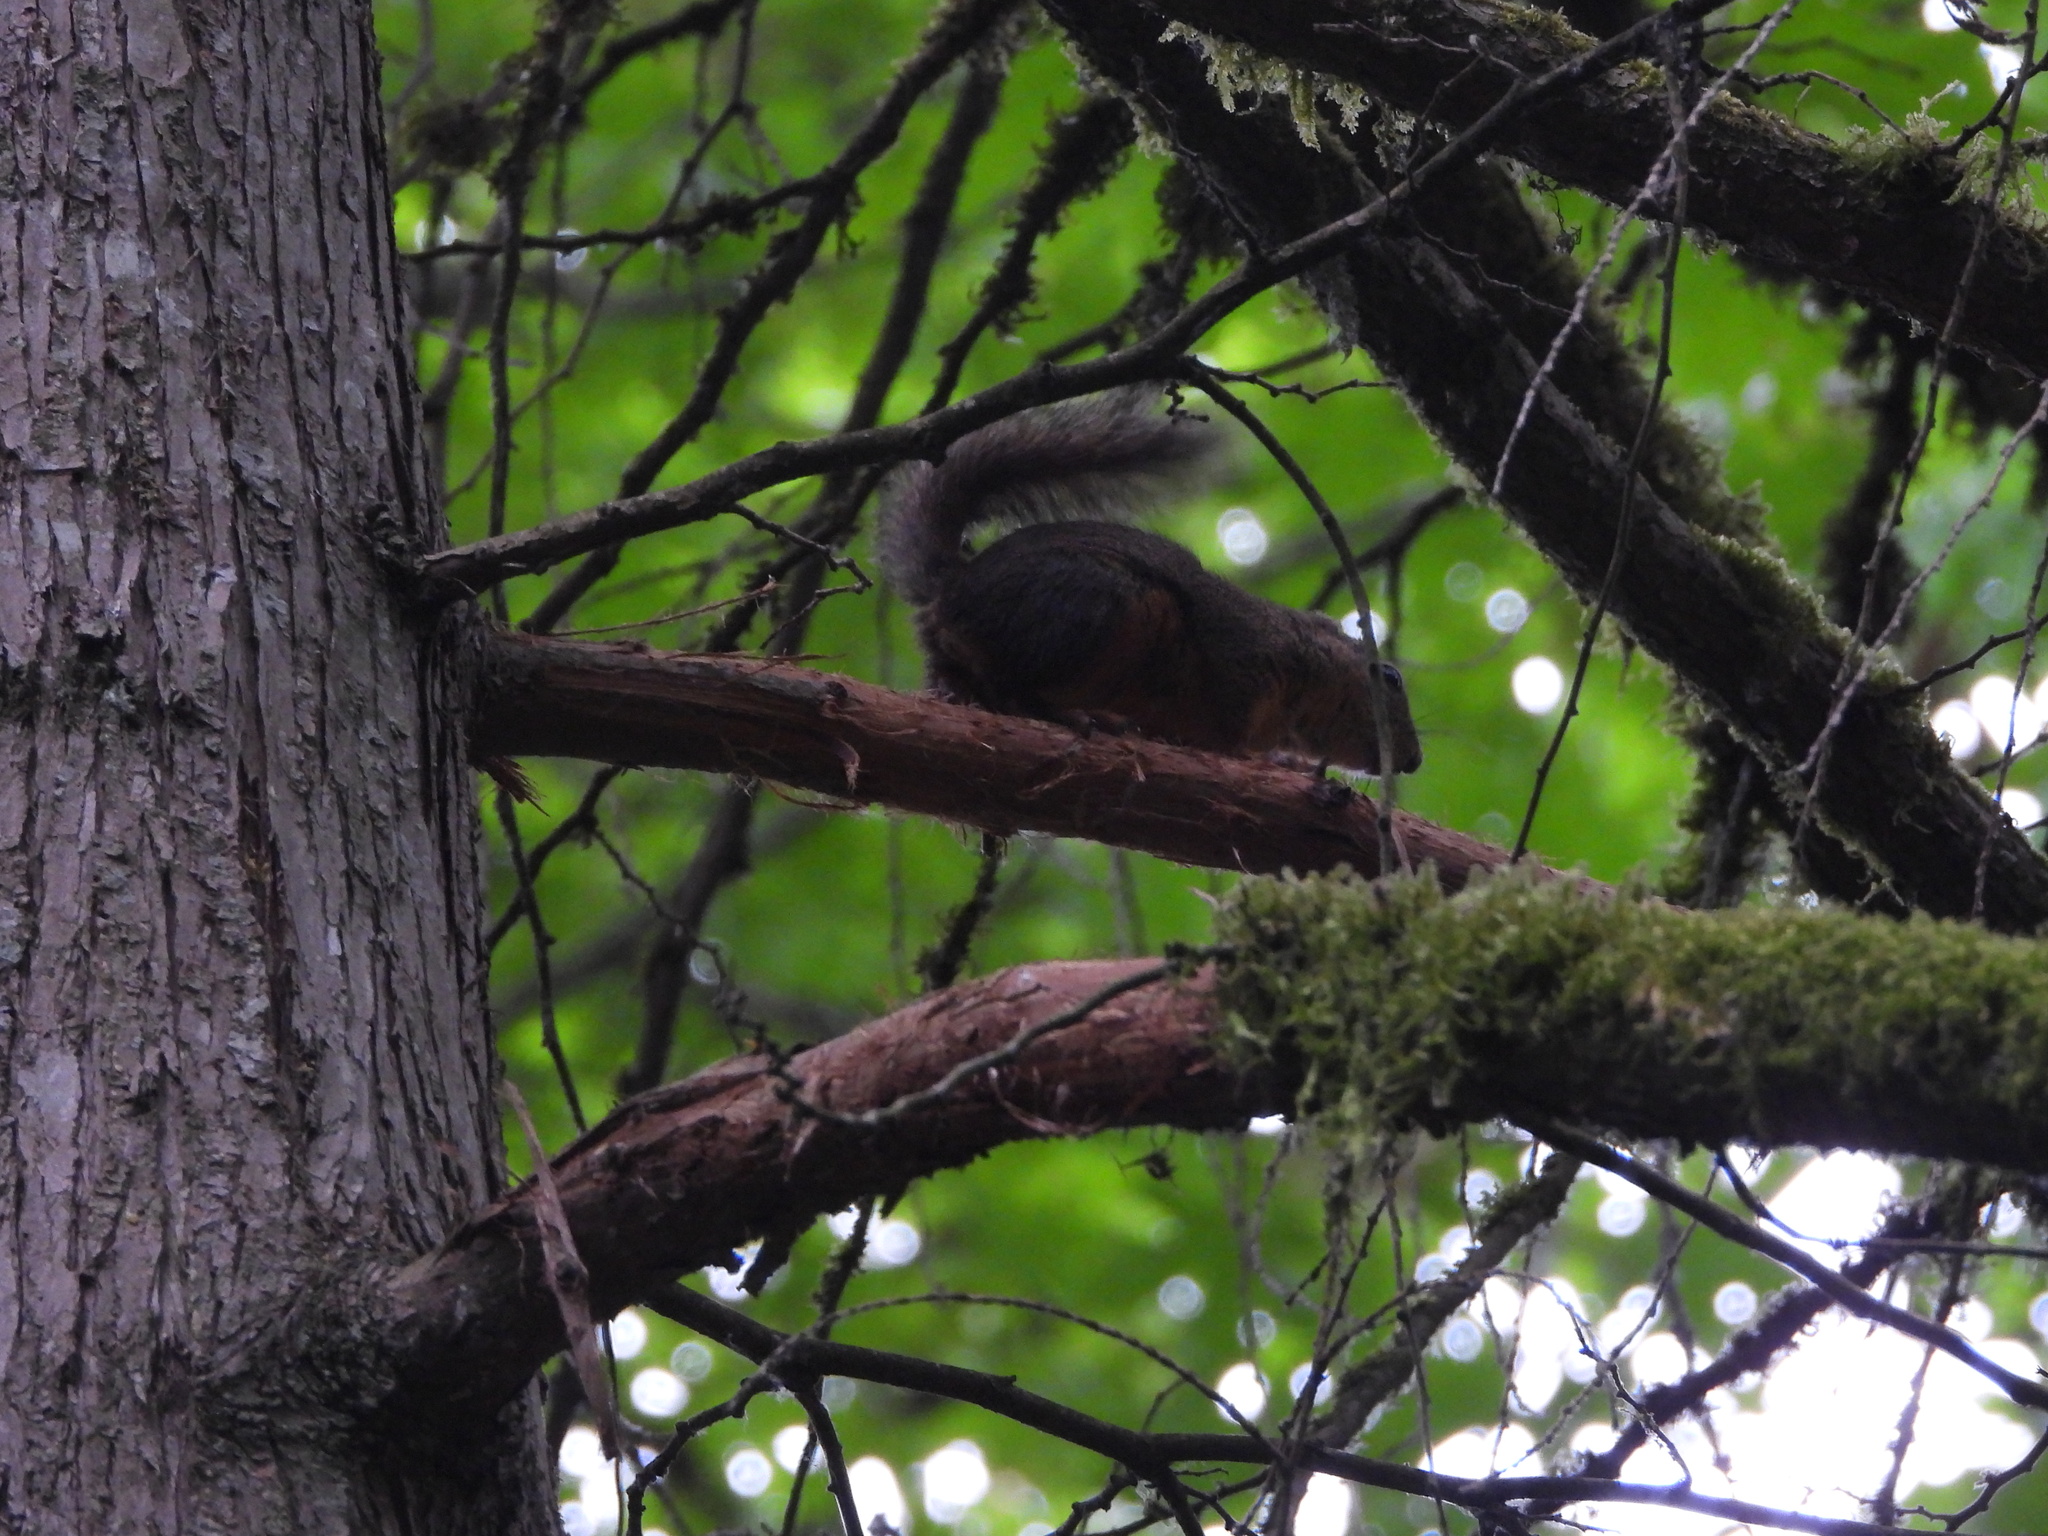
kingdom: Animalia
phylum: Chordata
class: Mammalia
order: Rodentia
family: Sciuridae
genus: Tamiasciurus
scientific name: Tamiasciurus douglasii
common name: Douglas's squirrel
